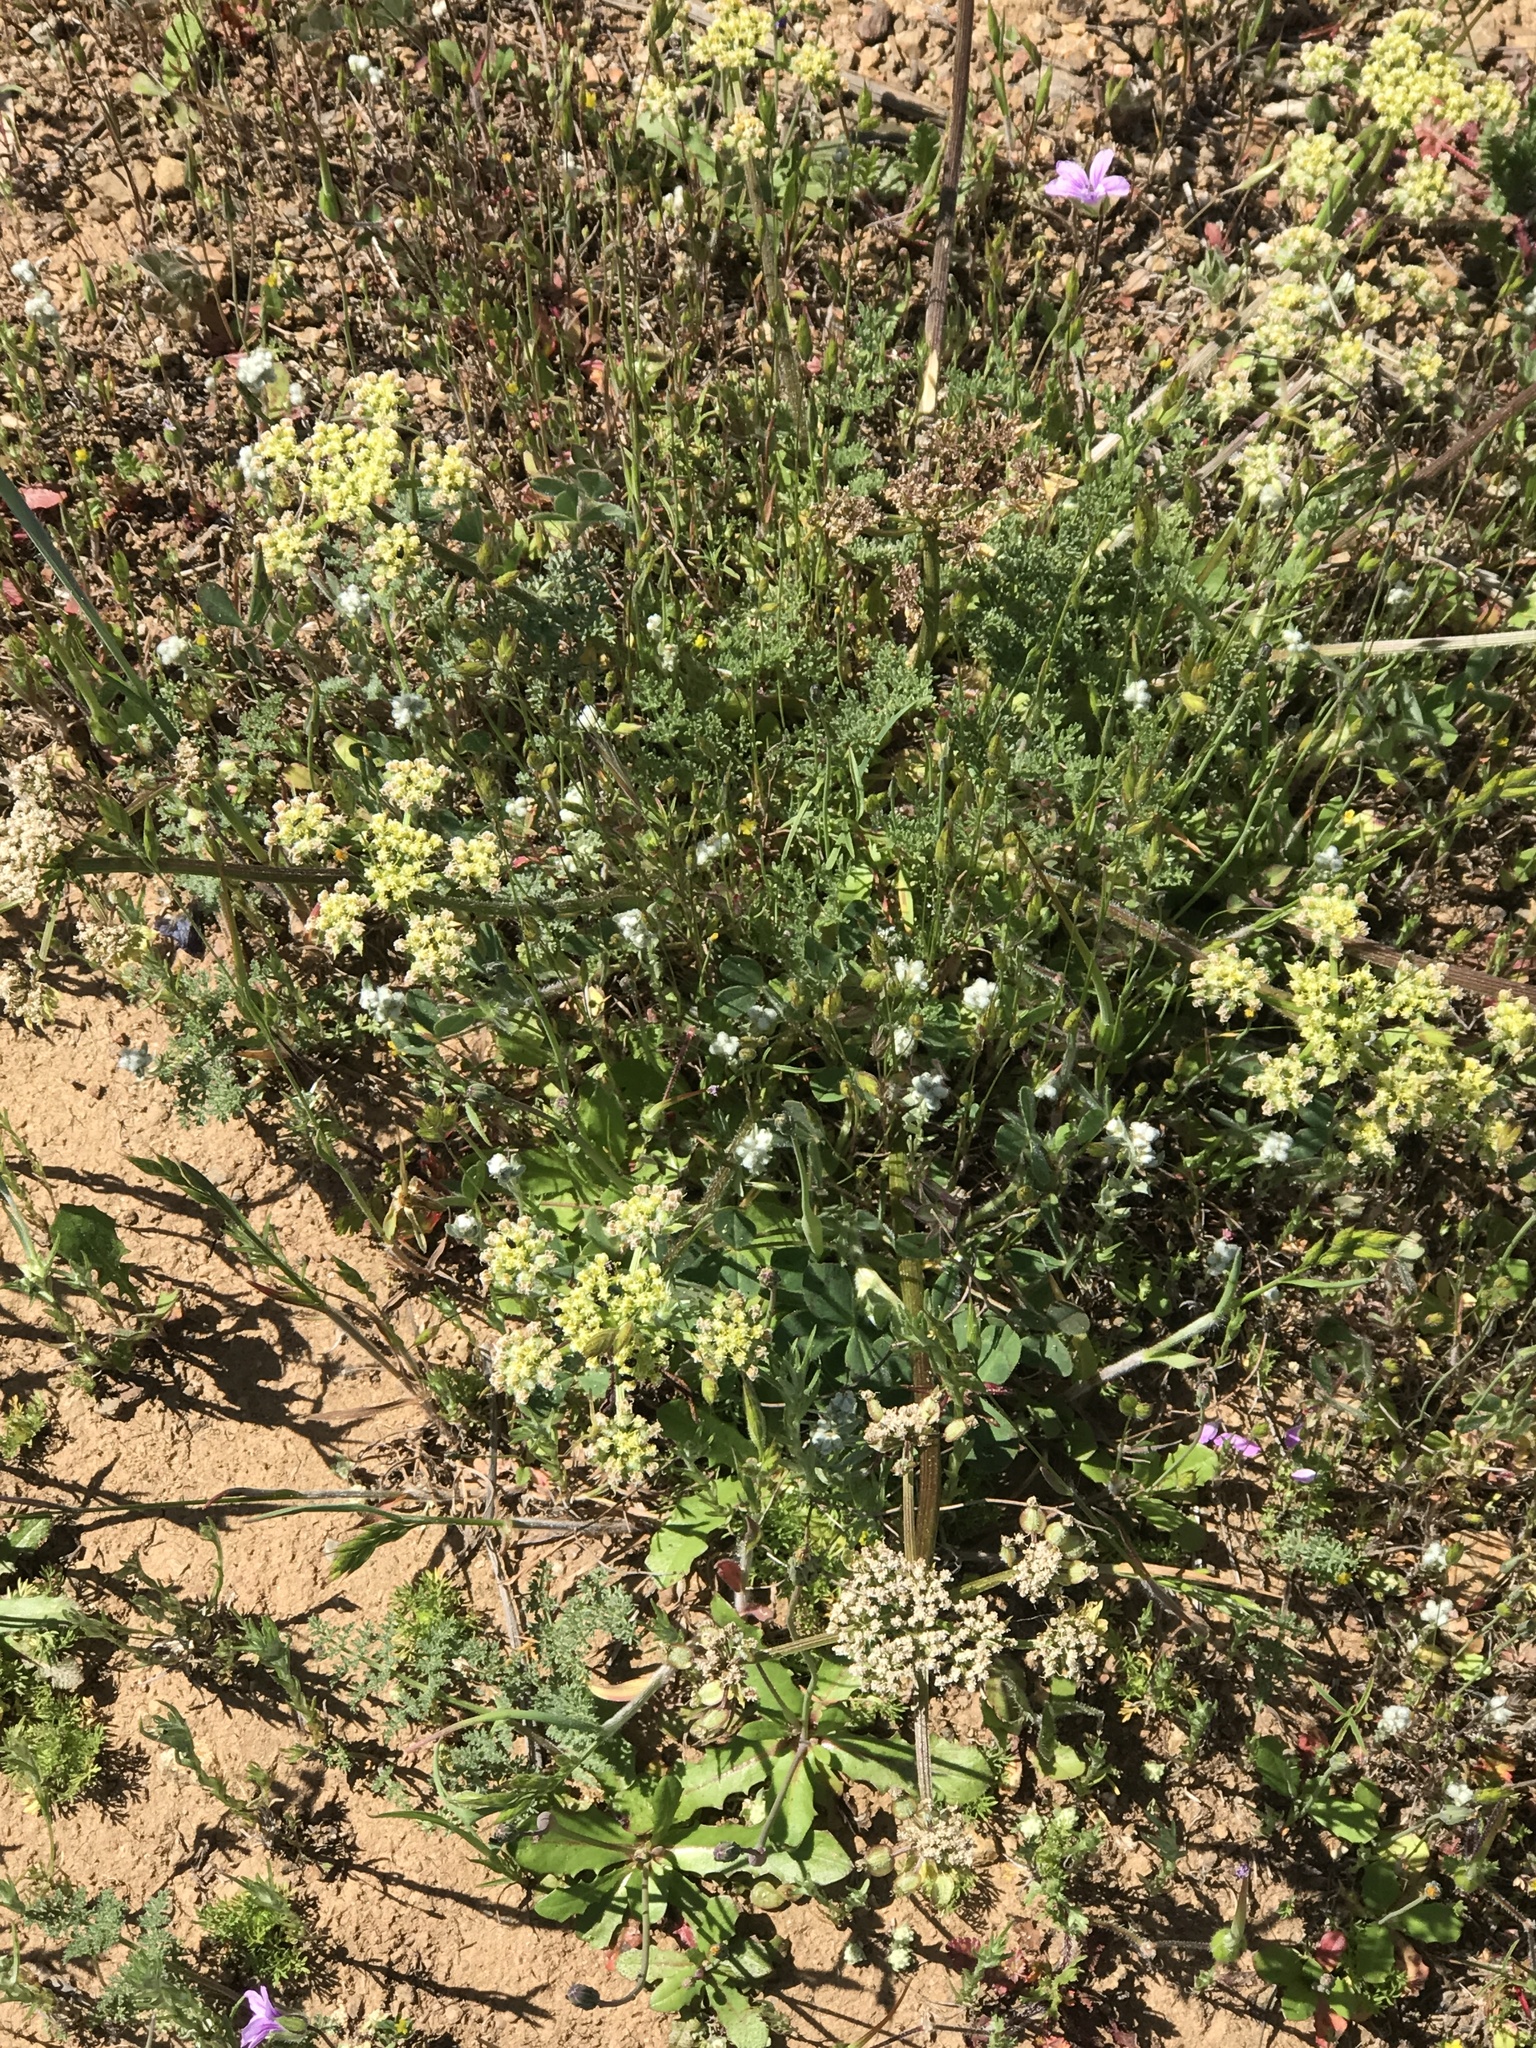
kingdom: Plantae
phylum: Tracheophyta
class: Magnoliopsida
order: Apiales
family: Apiaceae
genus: Lomatium
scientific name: Lomatium dasycarpum
